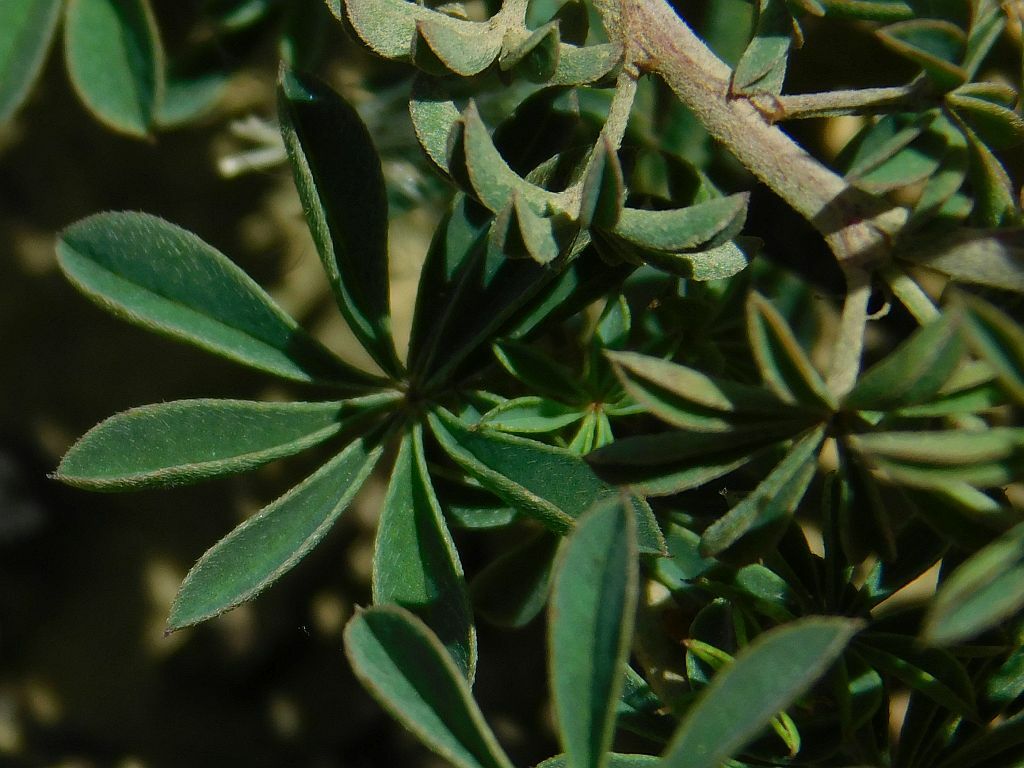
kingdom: Plantae
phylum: Tracheophyta
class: Magnoliopsida
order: Fabales
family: Fabaceae
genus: Indigofera
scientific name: Indigofera digitata
